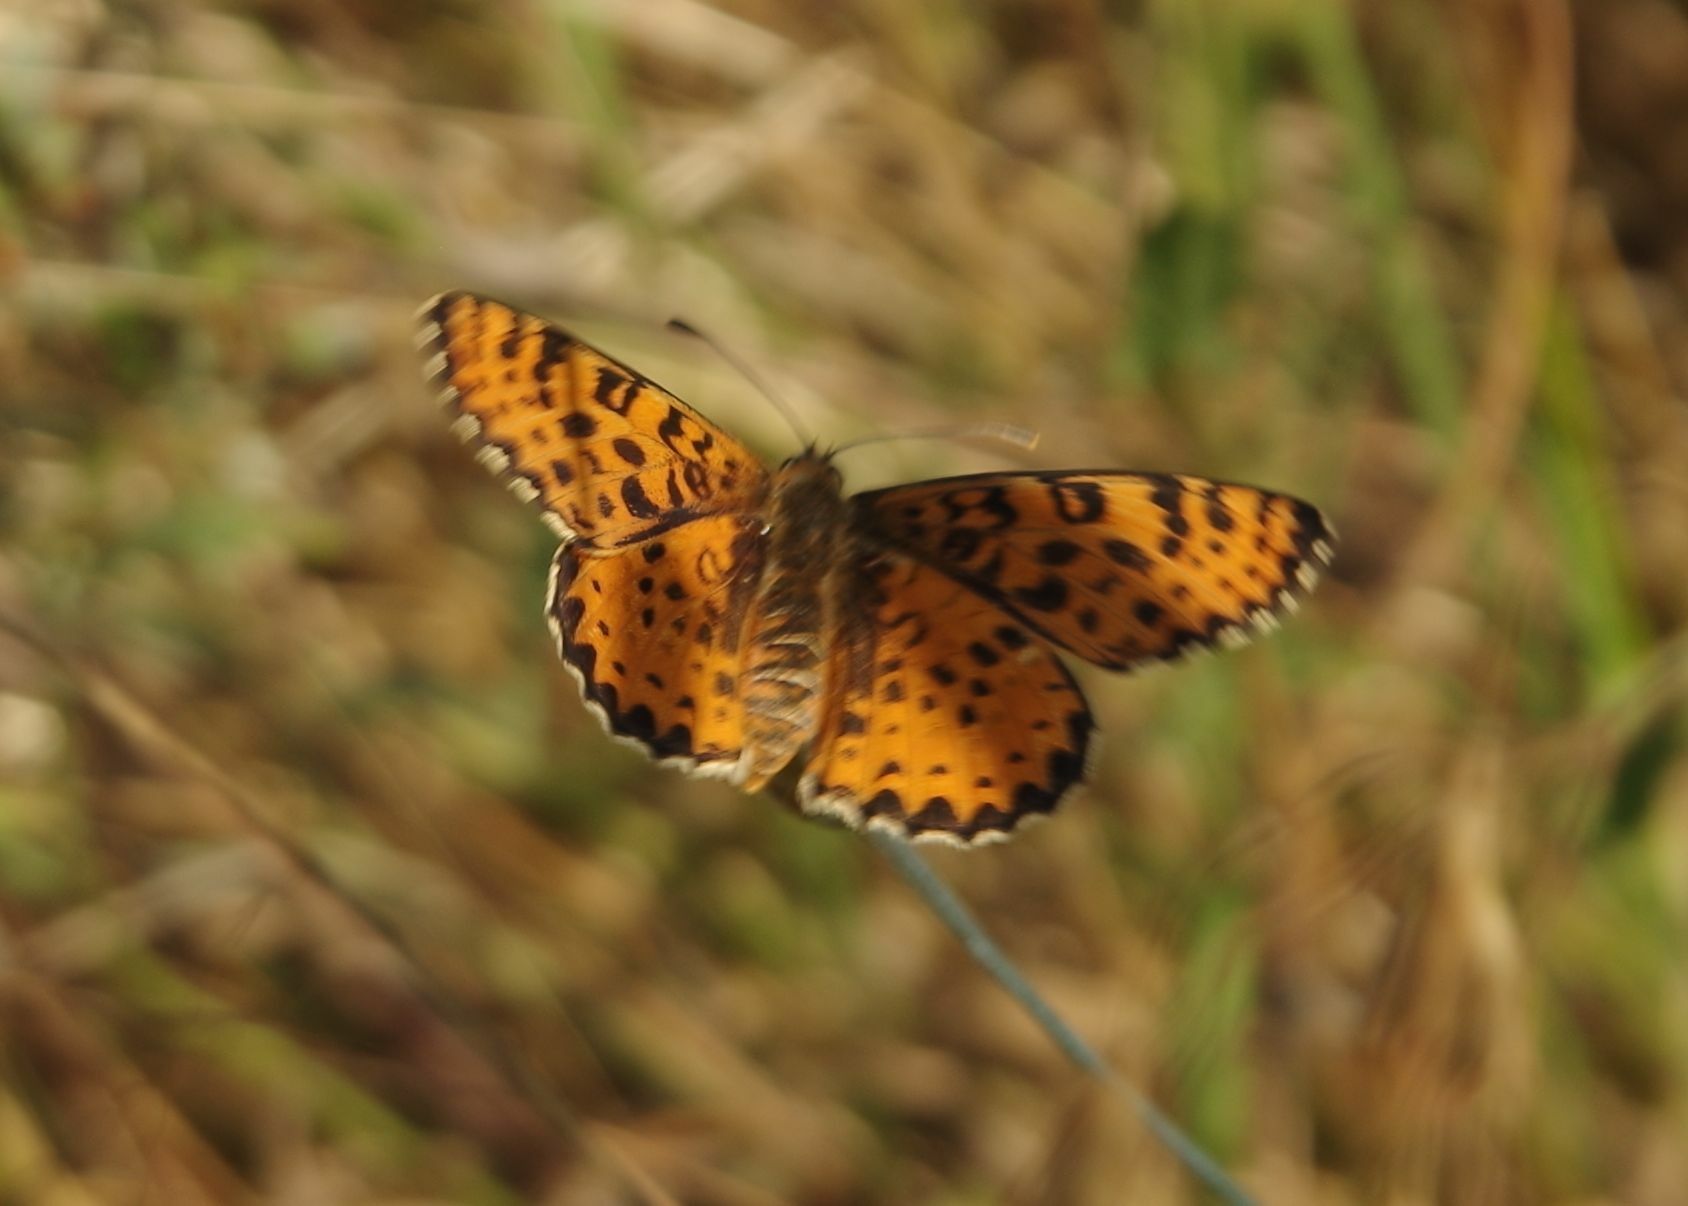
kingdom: Animalia
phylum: Arthropoda
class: Insecta
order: Lepidoptera
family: Nymphalidae
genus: Melitaea
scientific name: Melitaea didyma
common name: Spotted fritillary
